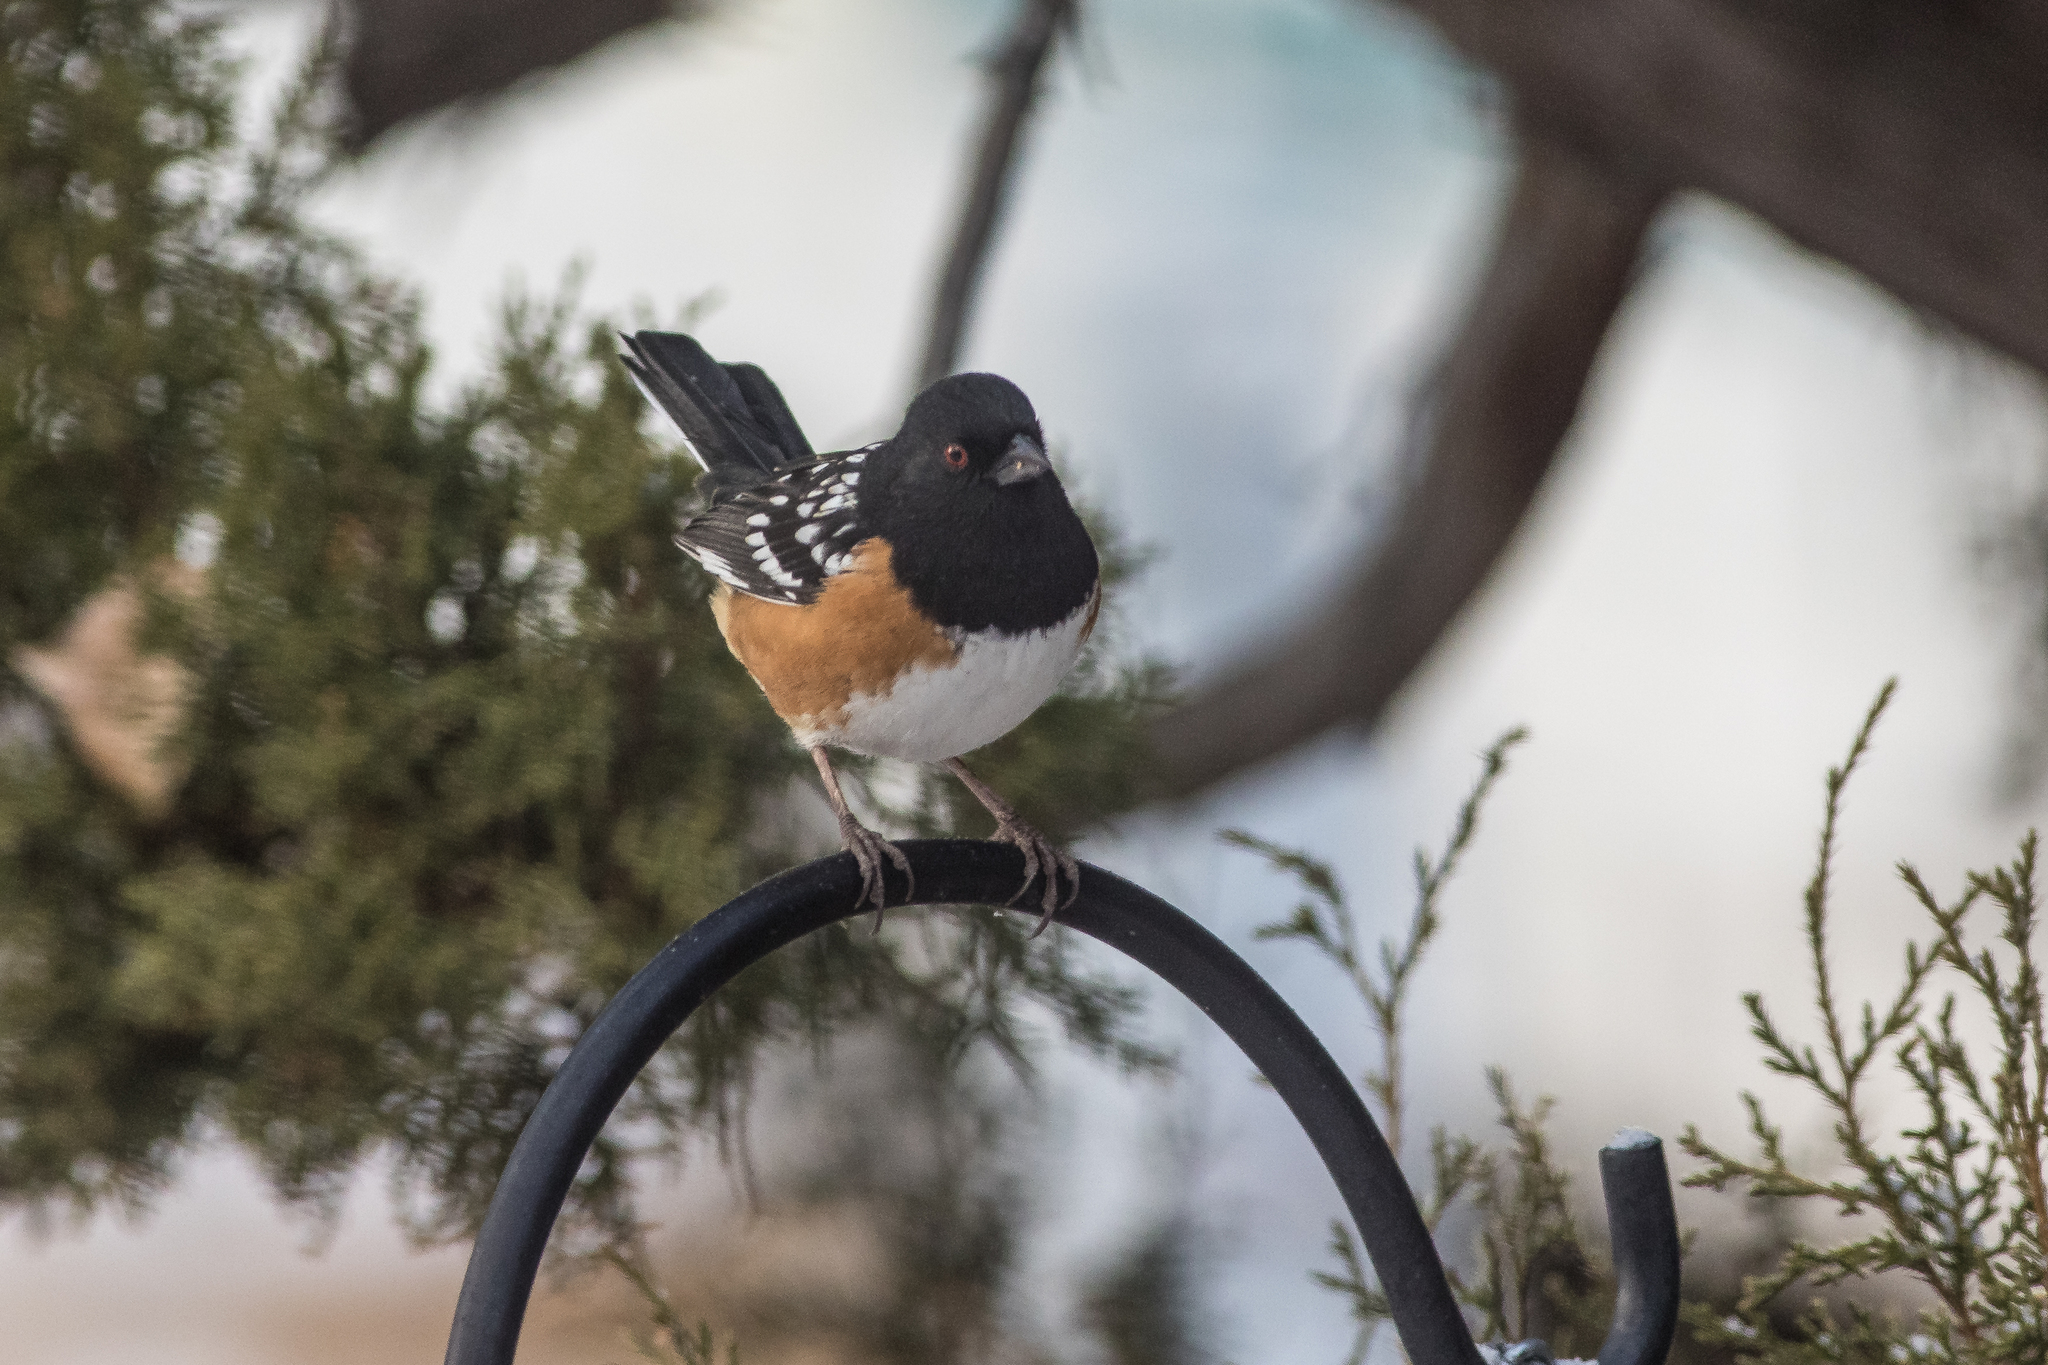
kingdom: Animalia
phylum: Chordata
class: Aves
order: Passeriformes
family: Passerellidae
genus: Pipilo
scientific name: Pipilo maculatus
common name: Spotted towhee
